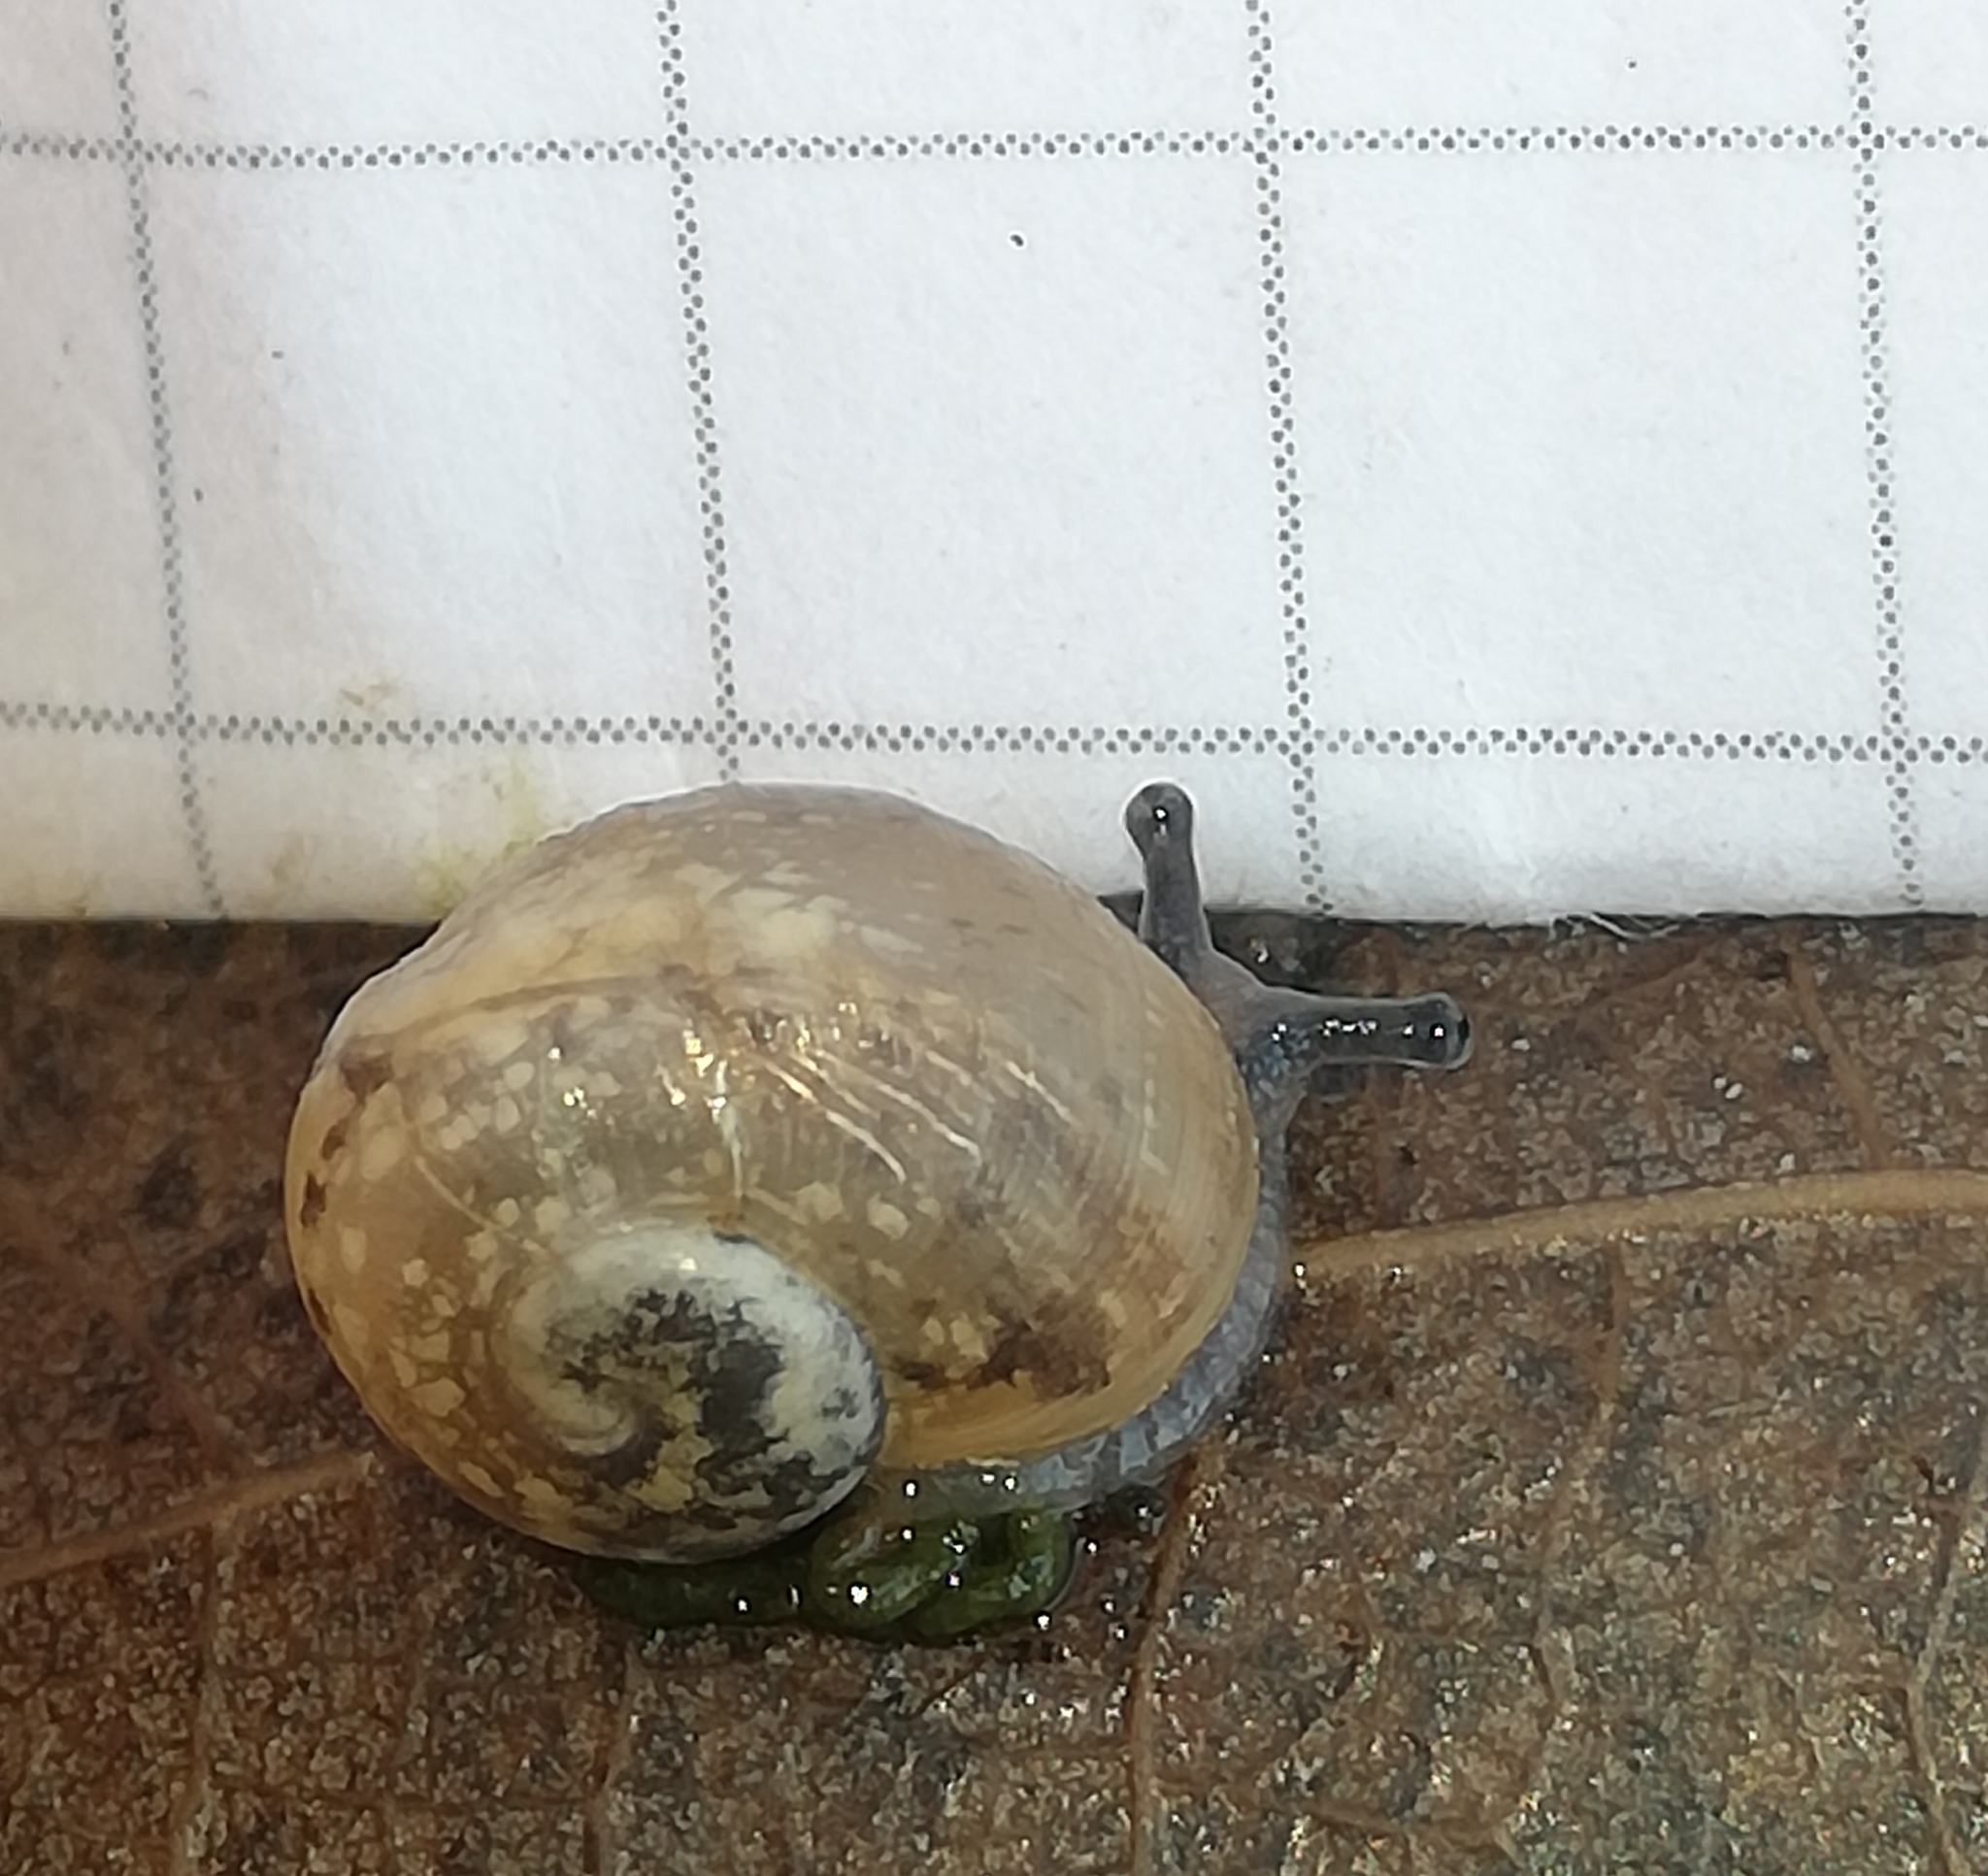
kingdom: Animalia
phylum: Mollusca
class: Gastropoda
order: Stylommatophora
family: Helicidae
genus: Helix
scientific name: Helix pomatia
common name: Roman snail
